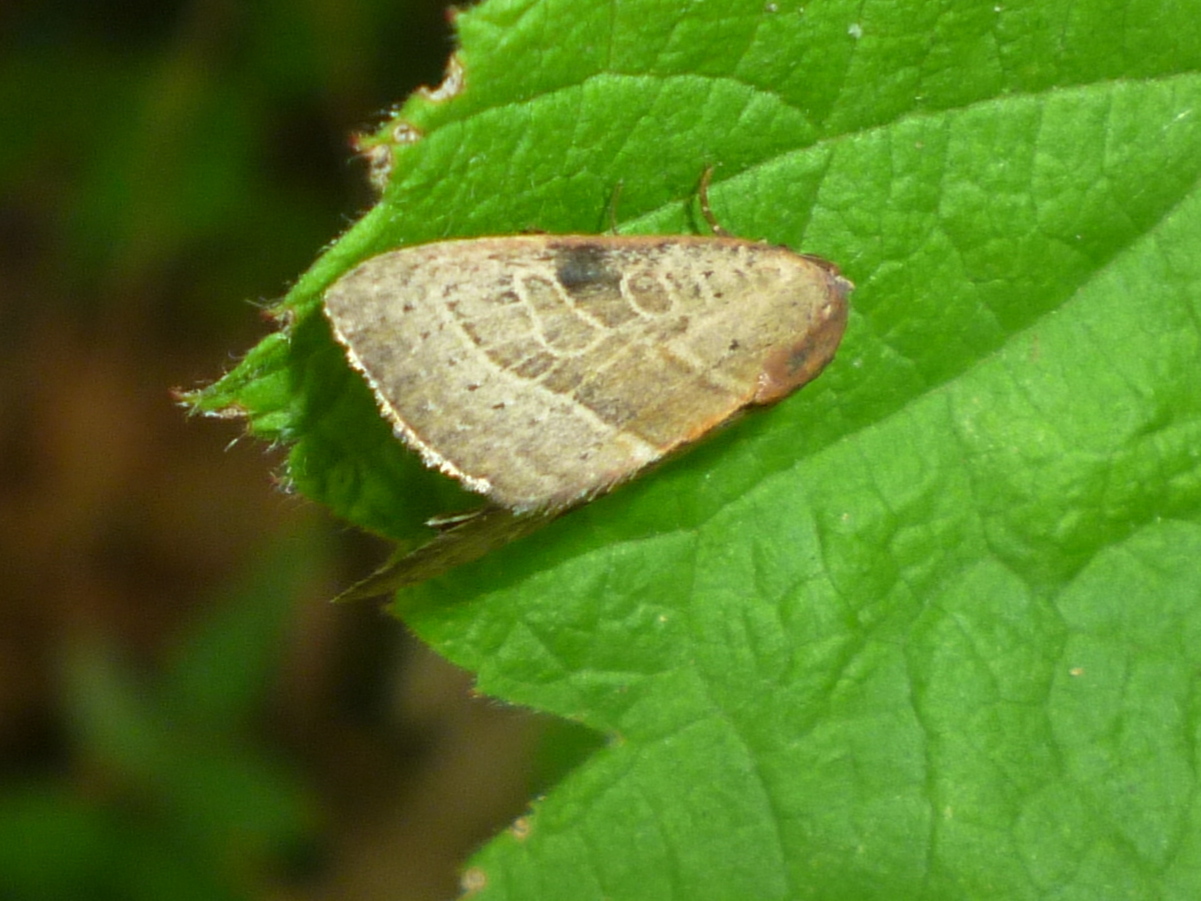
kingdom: Animalia
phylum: Arthropoda
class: Insecta
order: Lepidoptera
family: Noctuidae
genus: Galgula
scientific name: Galgula partita
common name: Wedgeling
